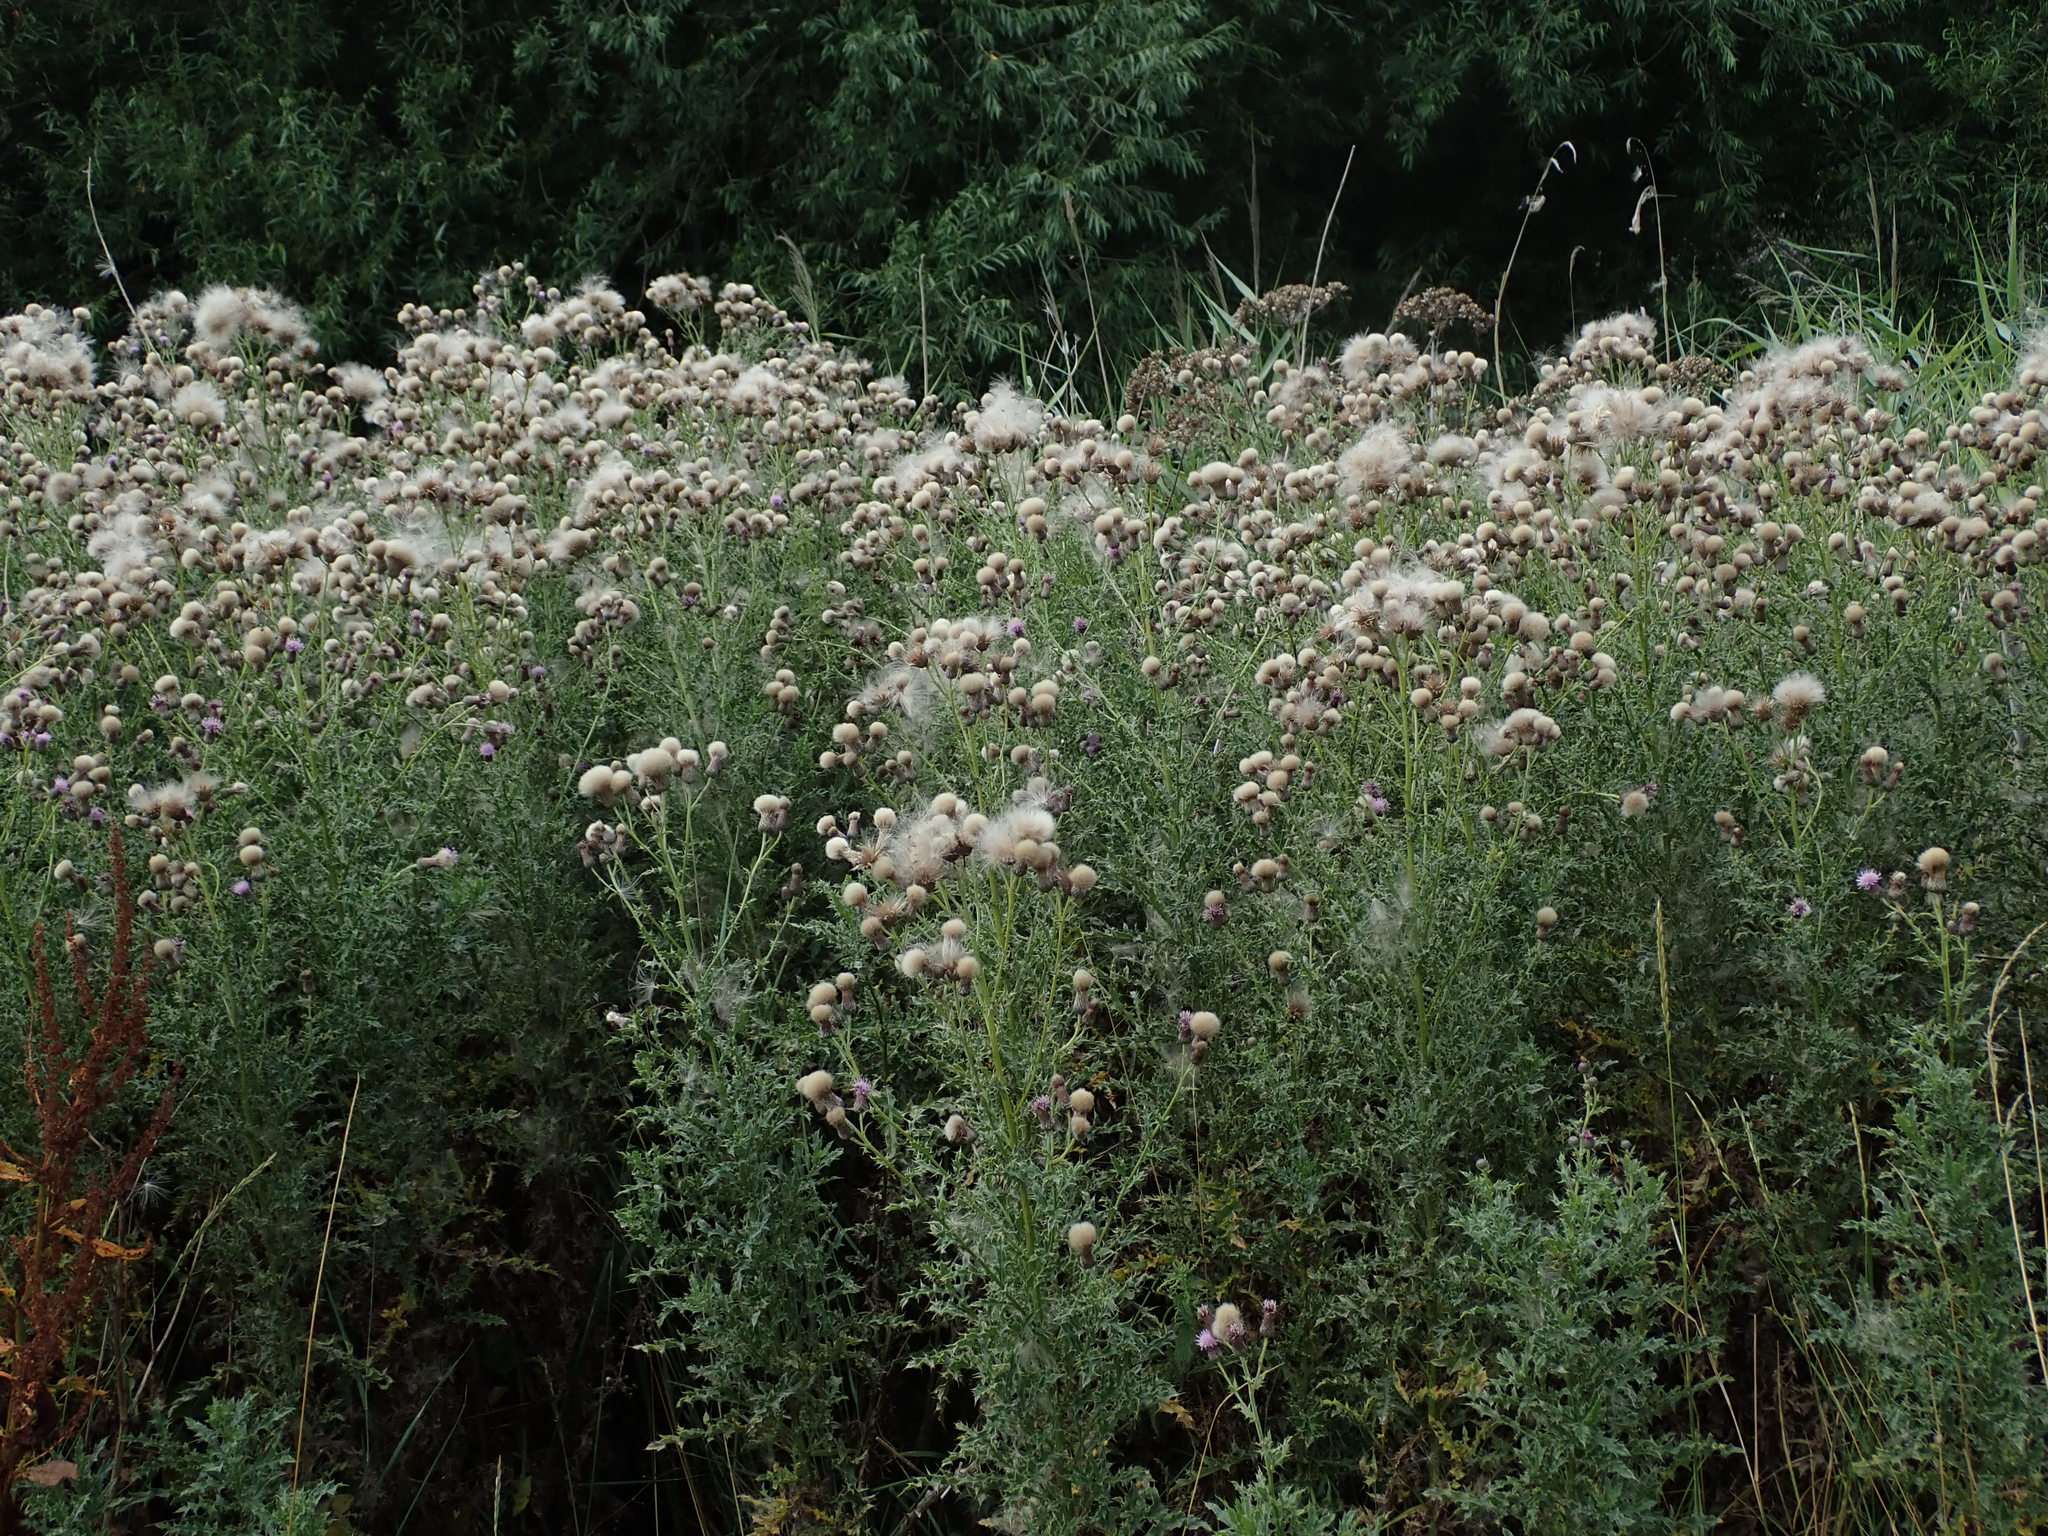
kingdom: Plantae
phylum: Tracheophyta
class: Magnoliopsida
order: Asterales
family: Asteraceae
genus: Cirsium
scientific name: Cirsium arvense
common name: Creeping thistle
